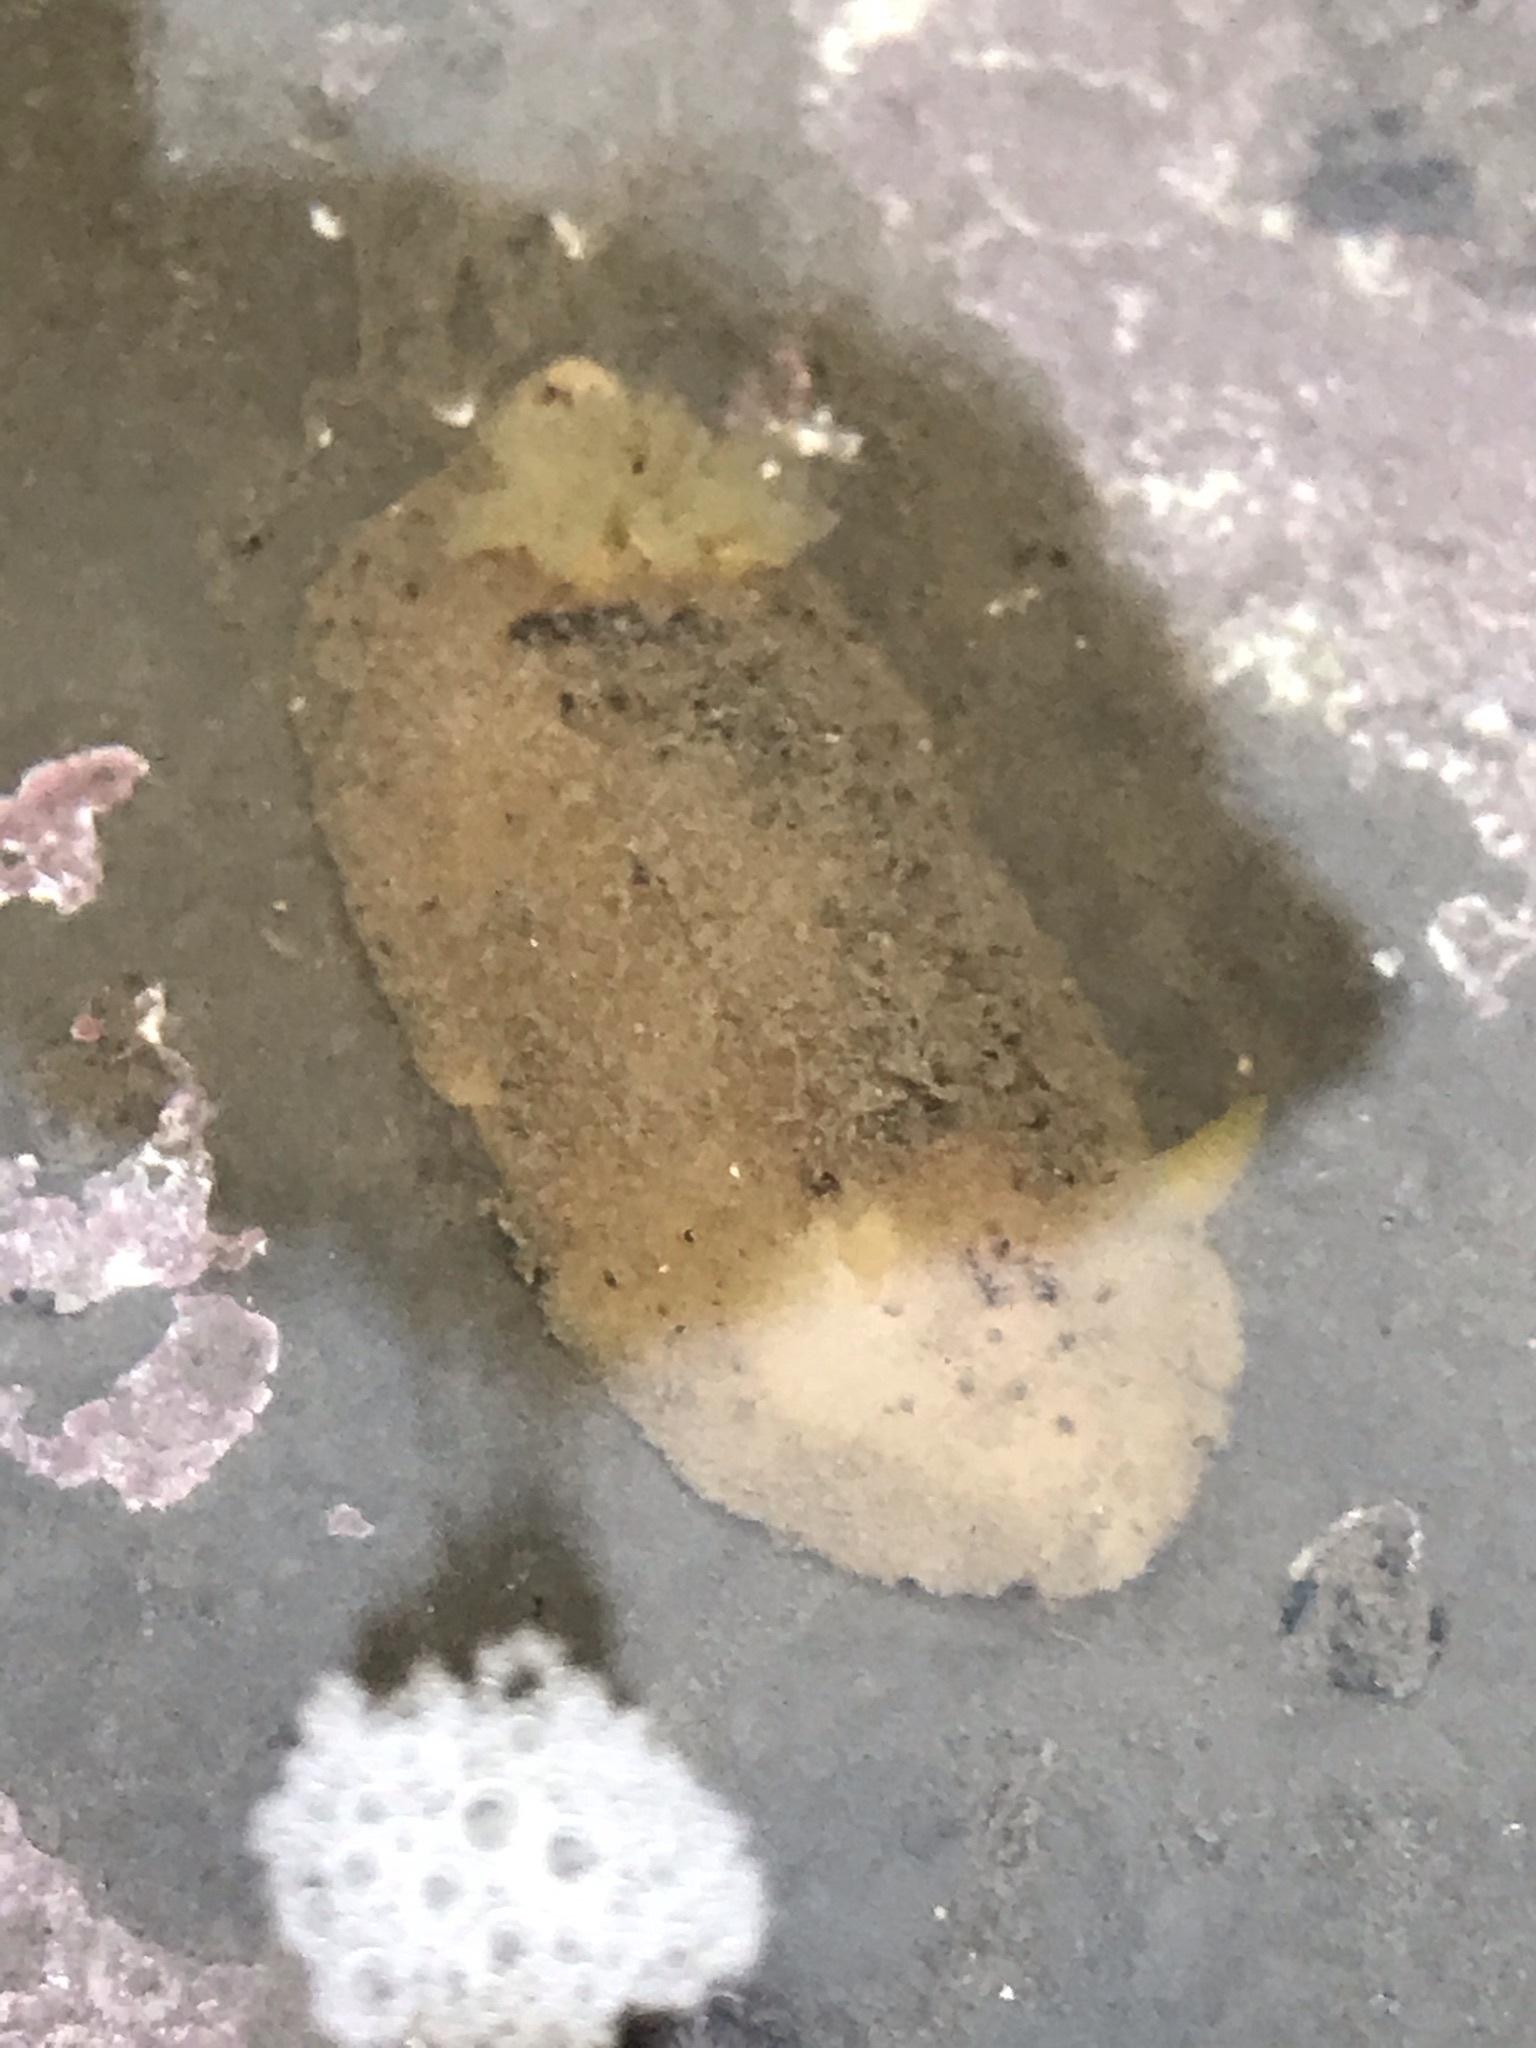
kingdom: Animalia
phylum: Mollusca
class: Gastropoda
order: Nudibranchia
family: Dorididae
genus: Doris
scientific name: Doris montereyensis
